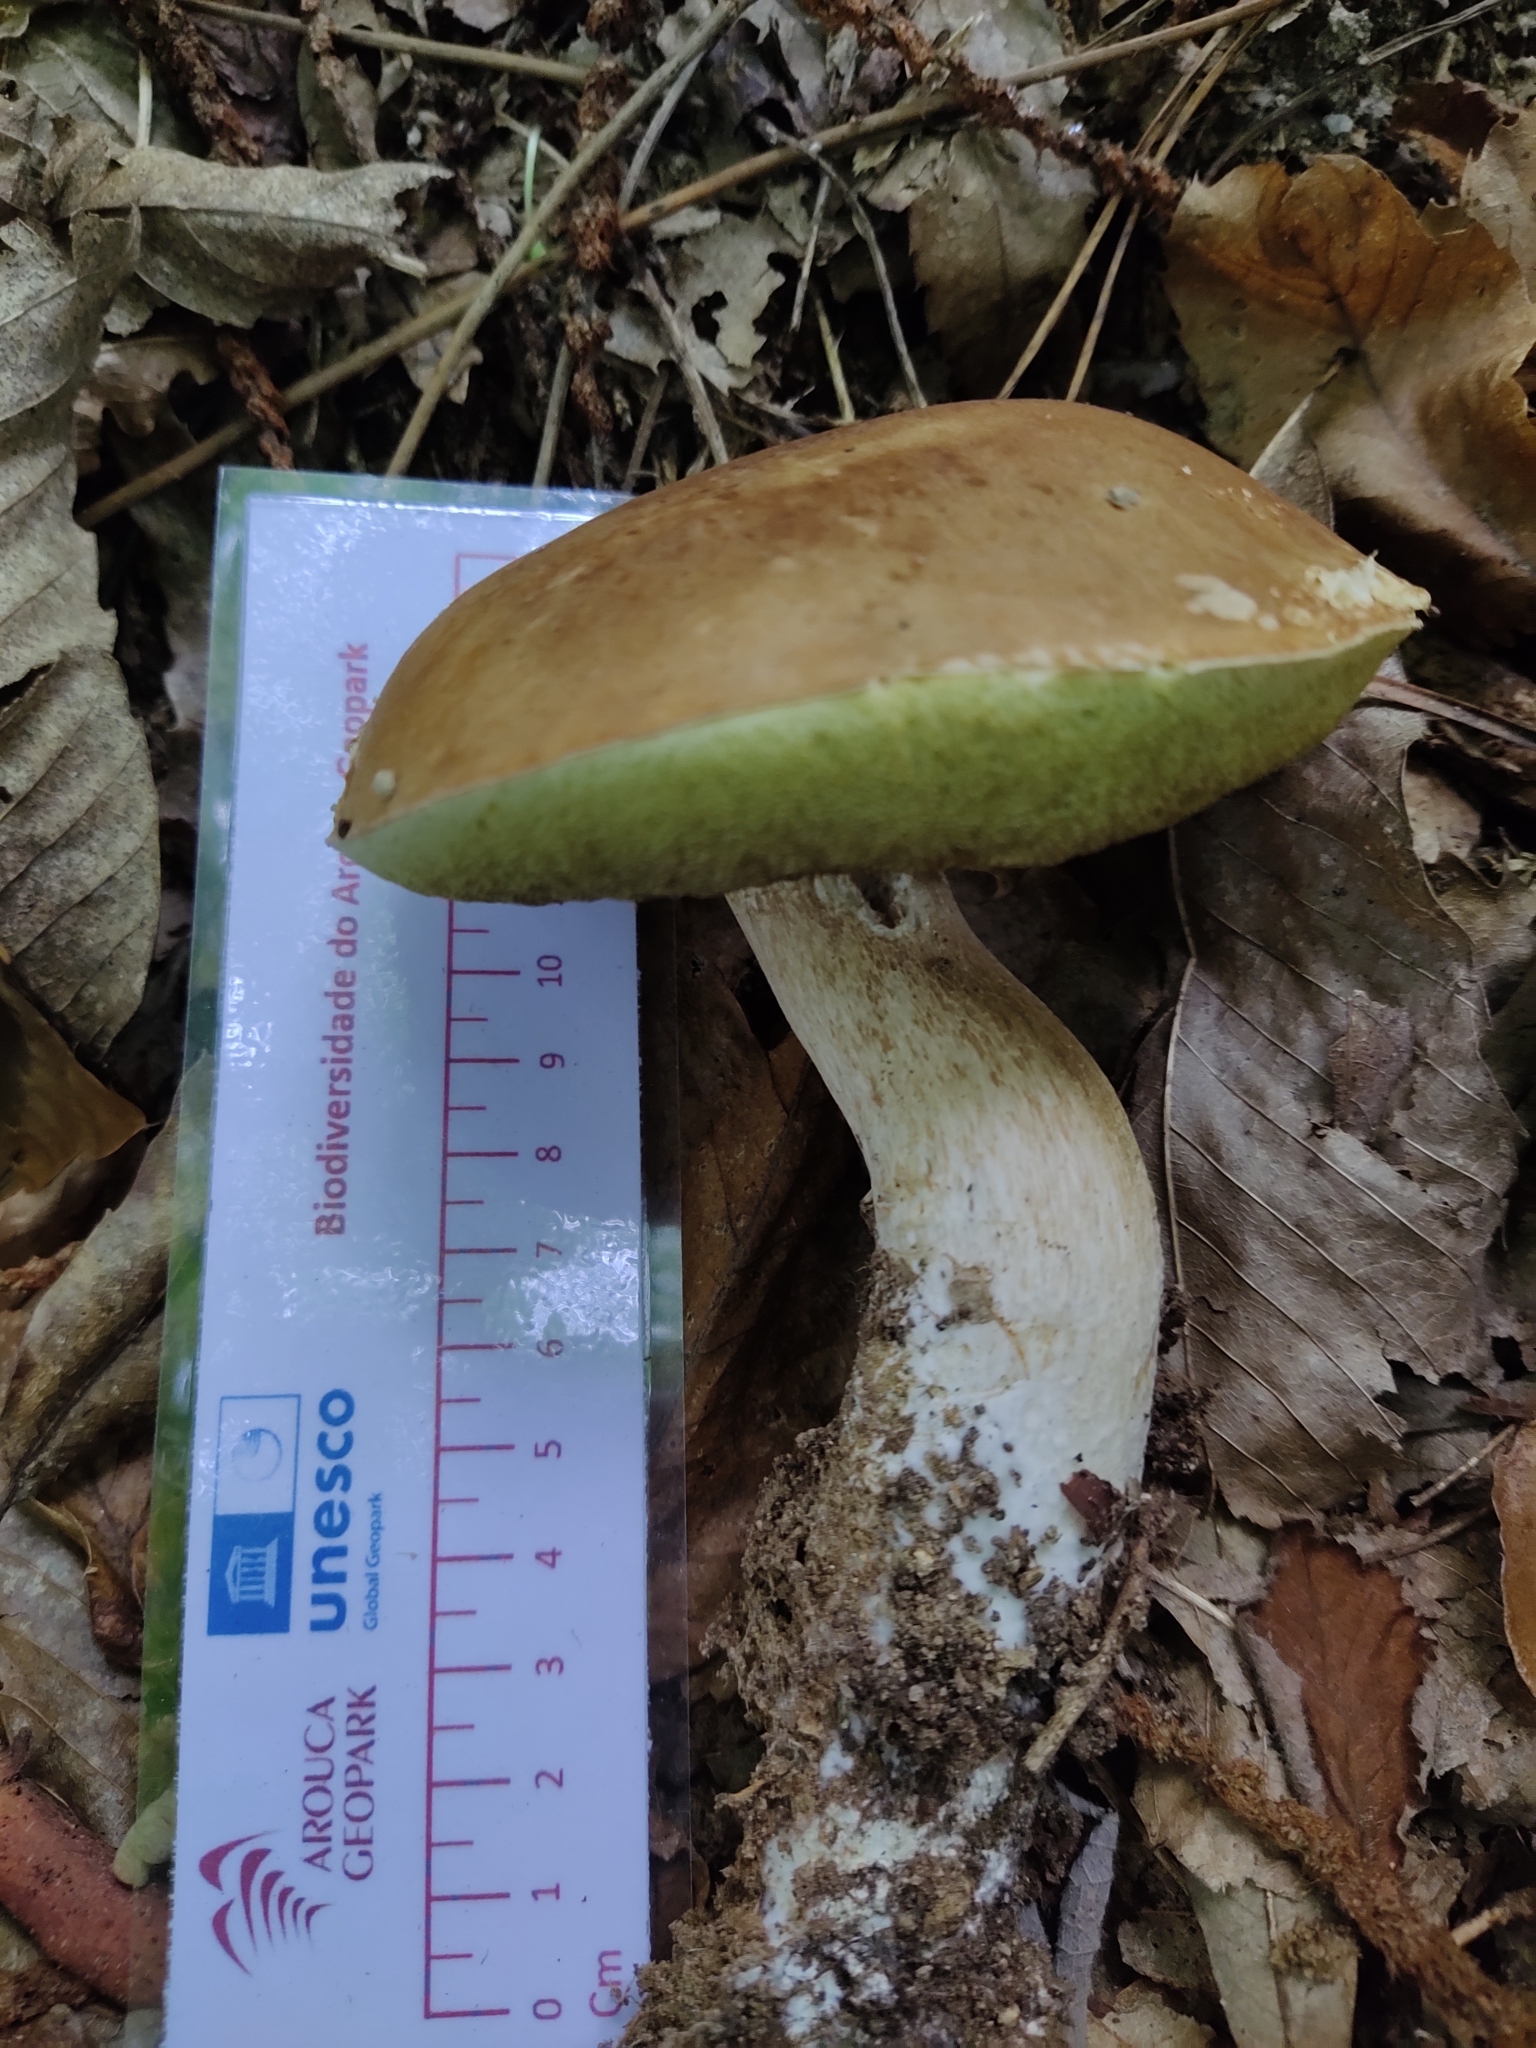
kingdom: Fungi
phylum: Basidiomycota
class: Agaricomycetes
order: Boletales
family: Boletaceae
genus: Boletus
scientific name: Boletus edulis
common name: Cep
